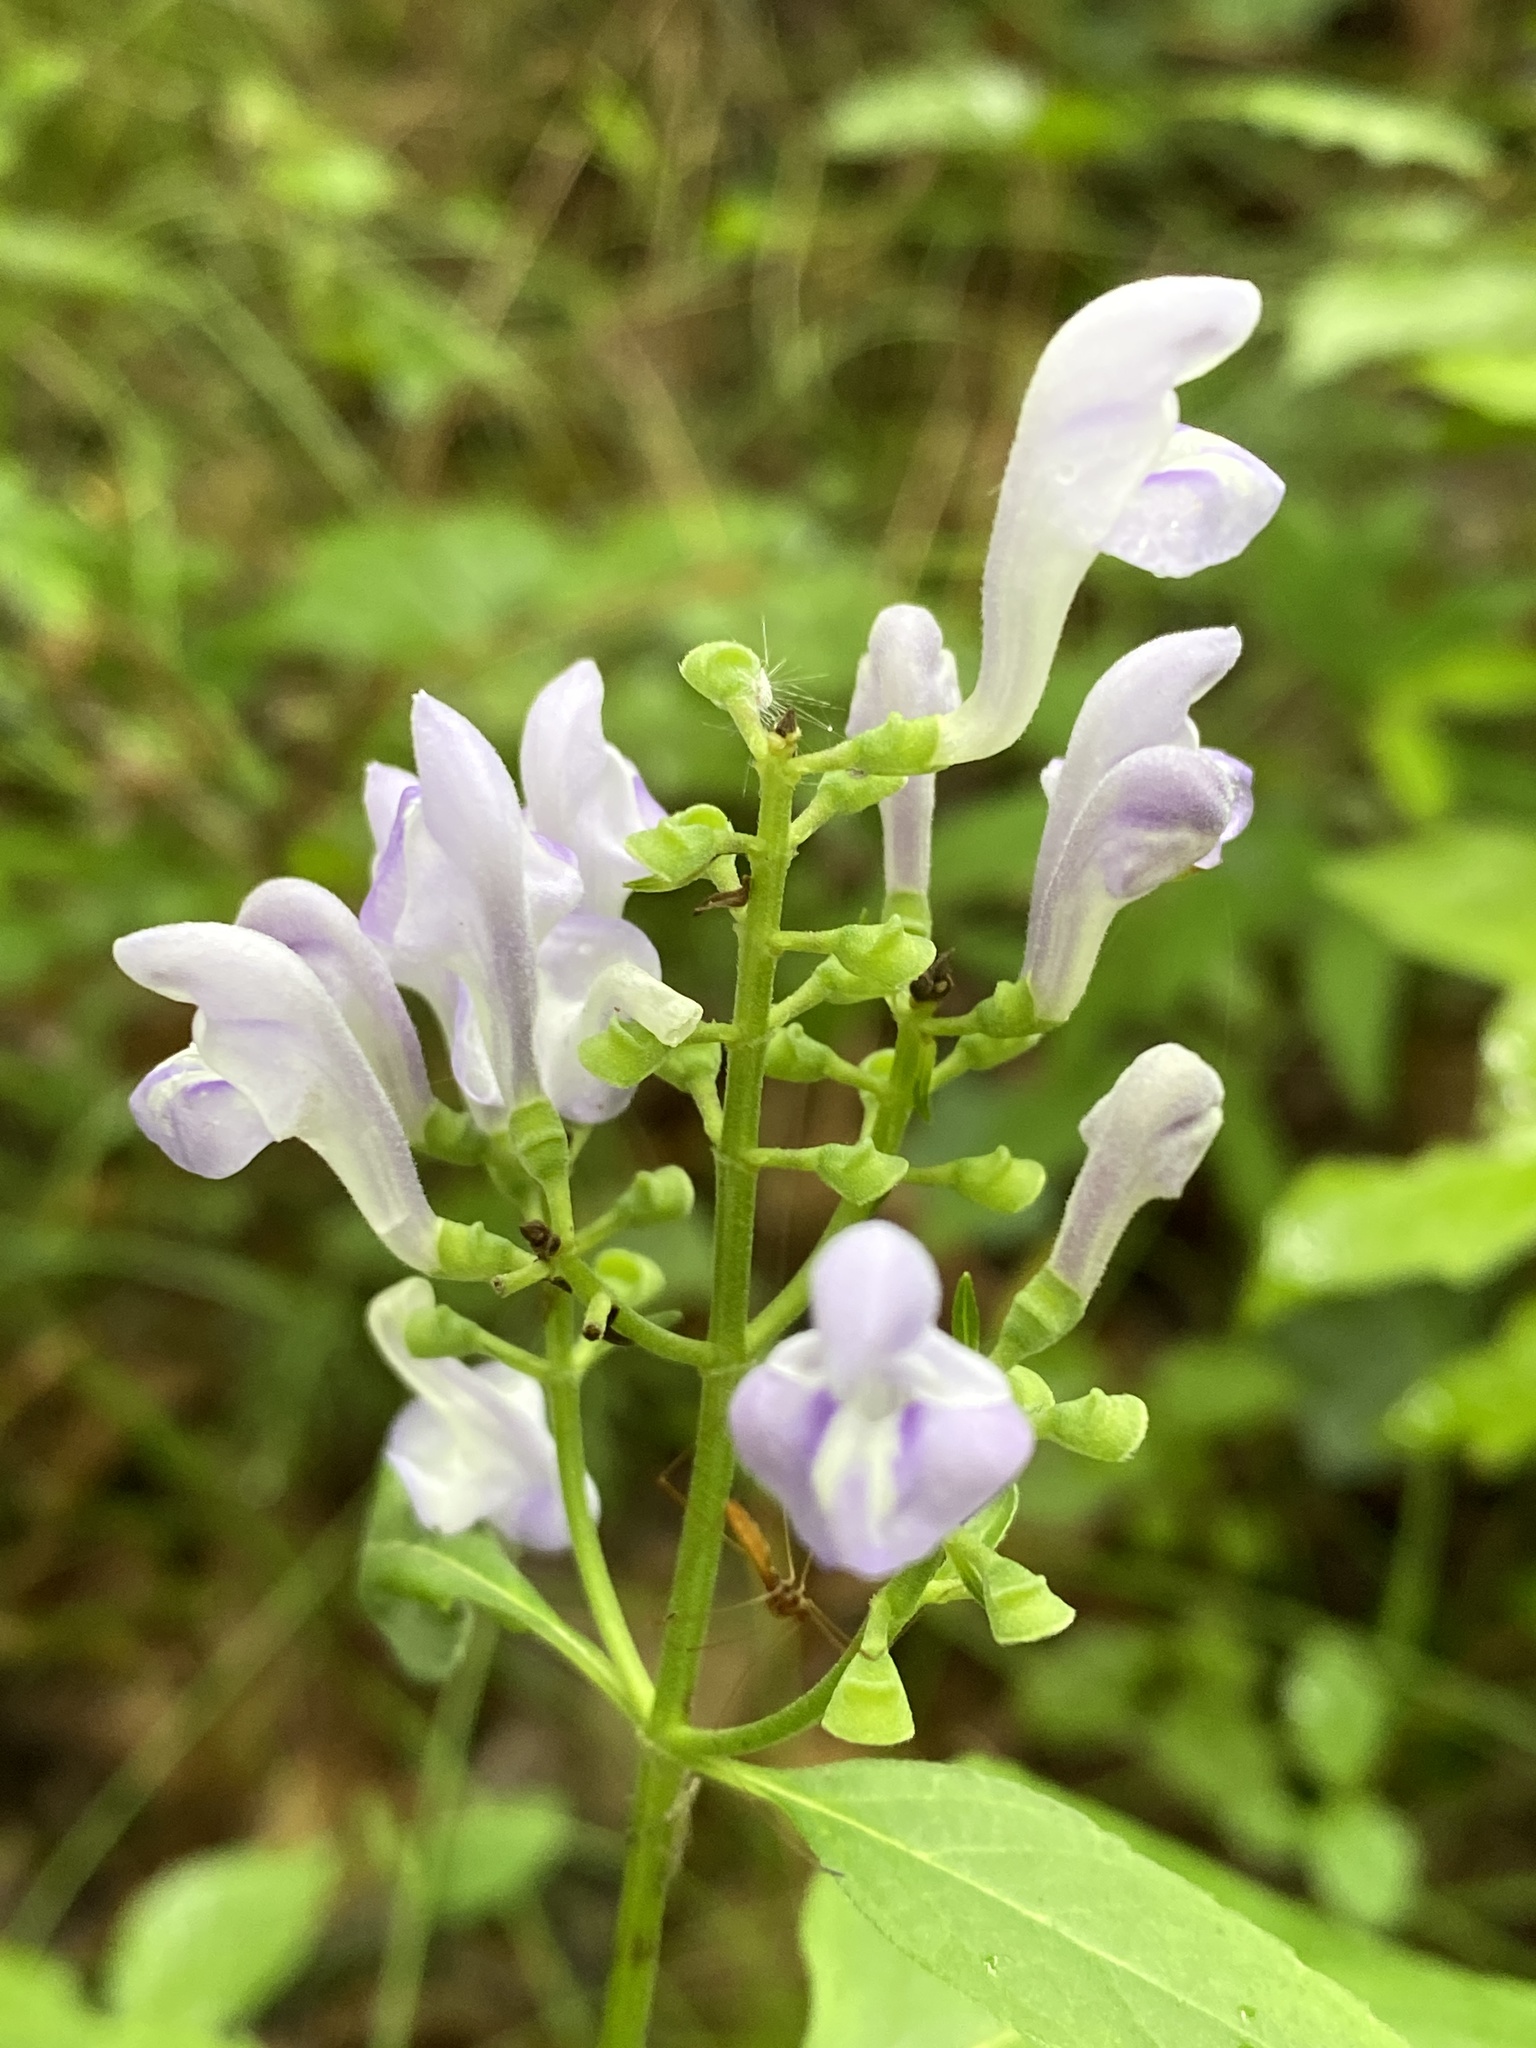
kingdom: Plantae
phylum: Tracheophyta
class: Magnoliopsida
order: Lamiales
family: Lamiaceae
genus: Scutellaria
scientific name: Scutellaria serrata
